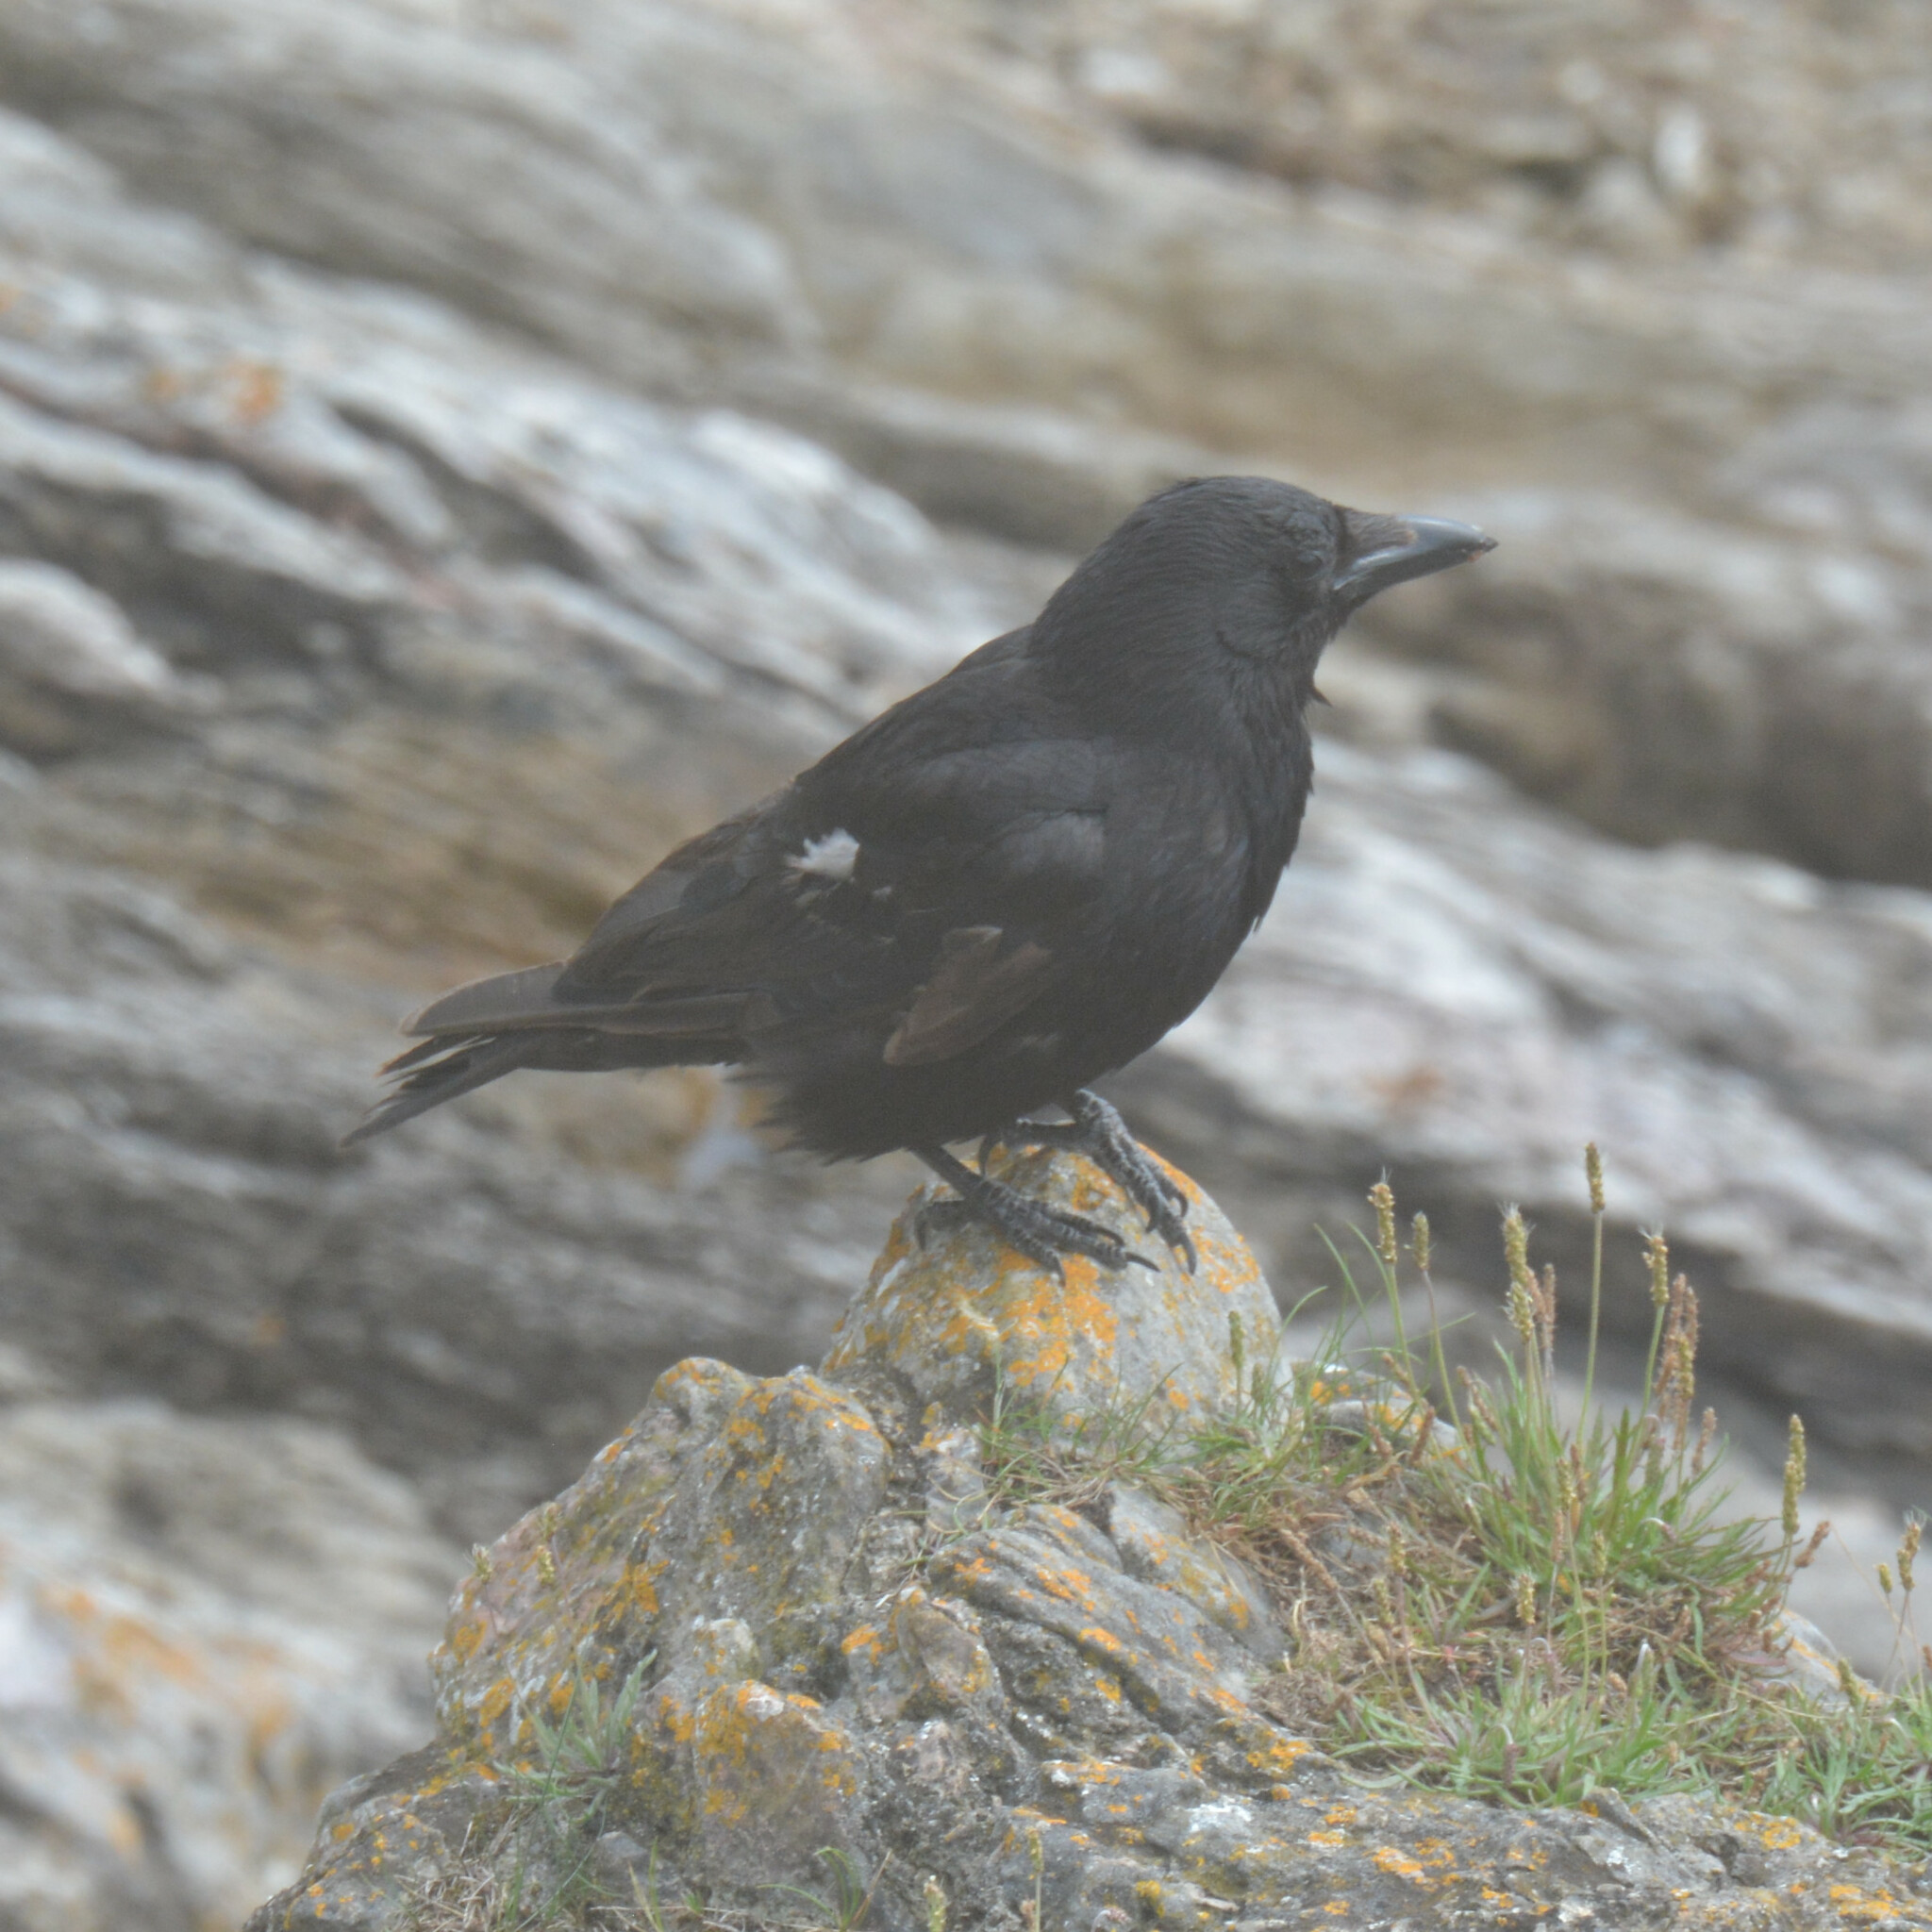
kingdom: Animalia
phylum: Chordata
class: Aves
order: Passeriformes
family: Corvidae
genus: Corvus
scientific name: Corvus corone
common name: Carrion crow
